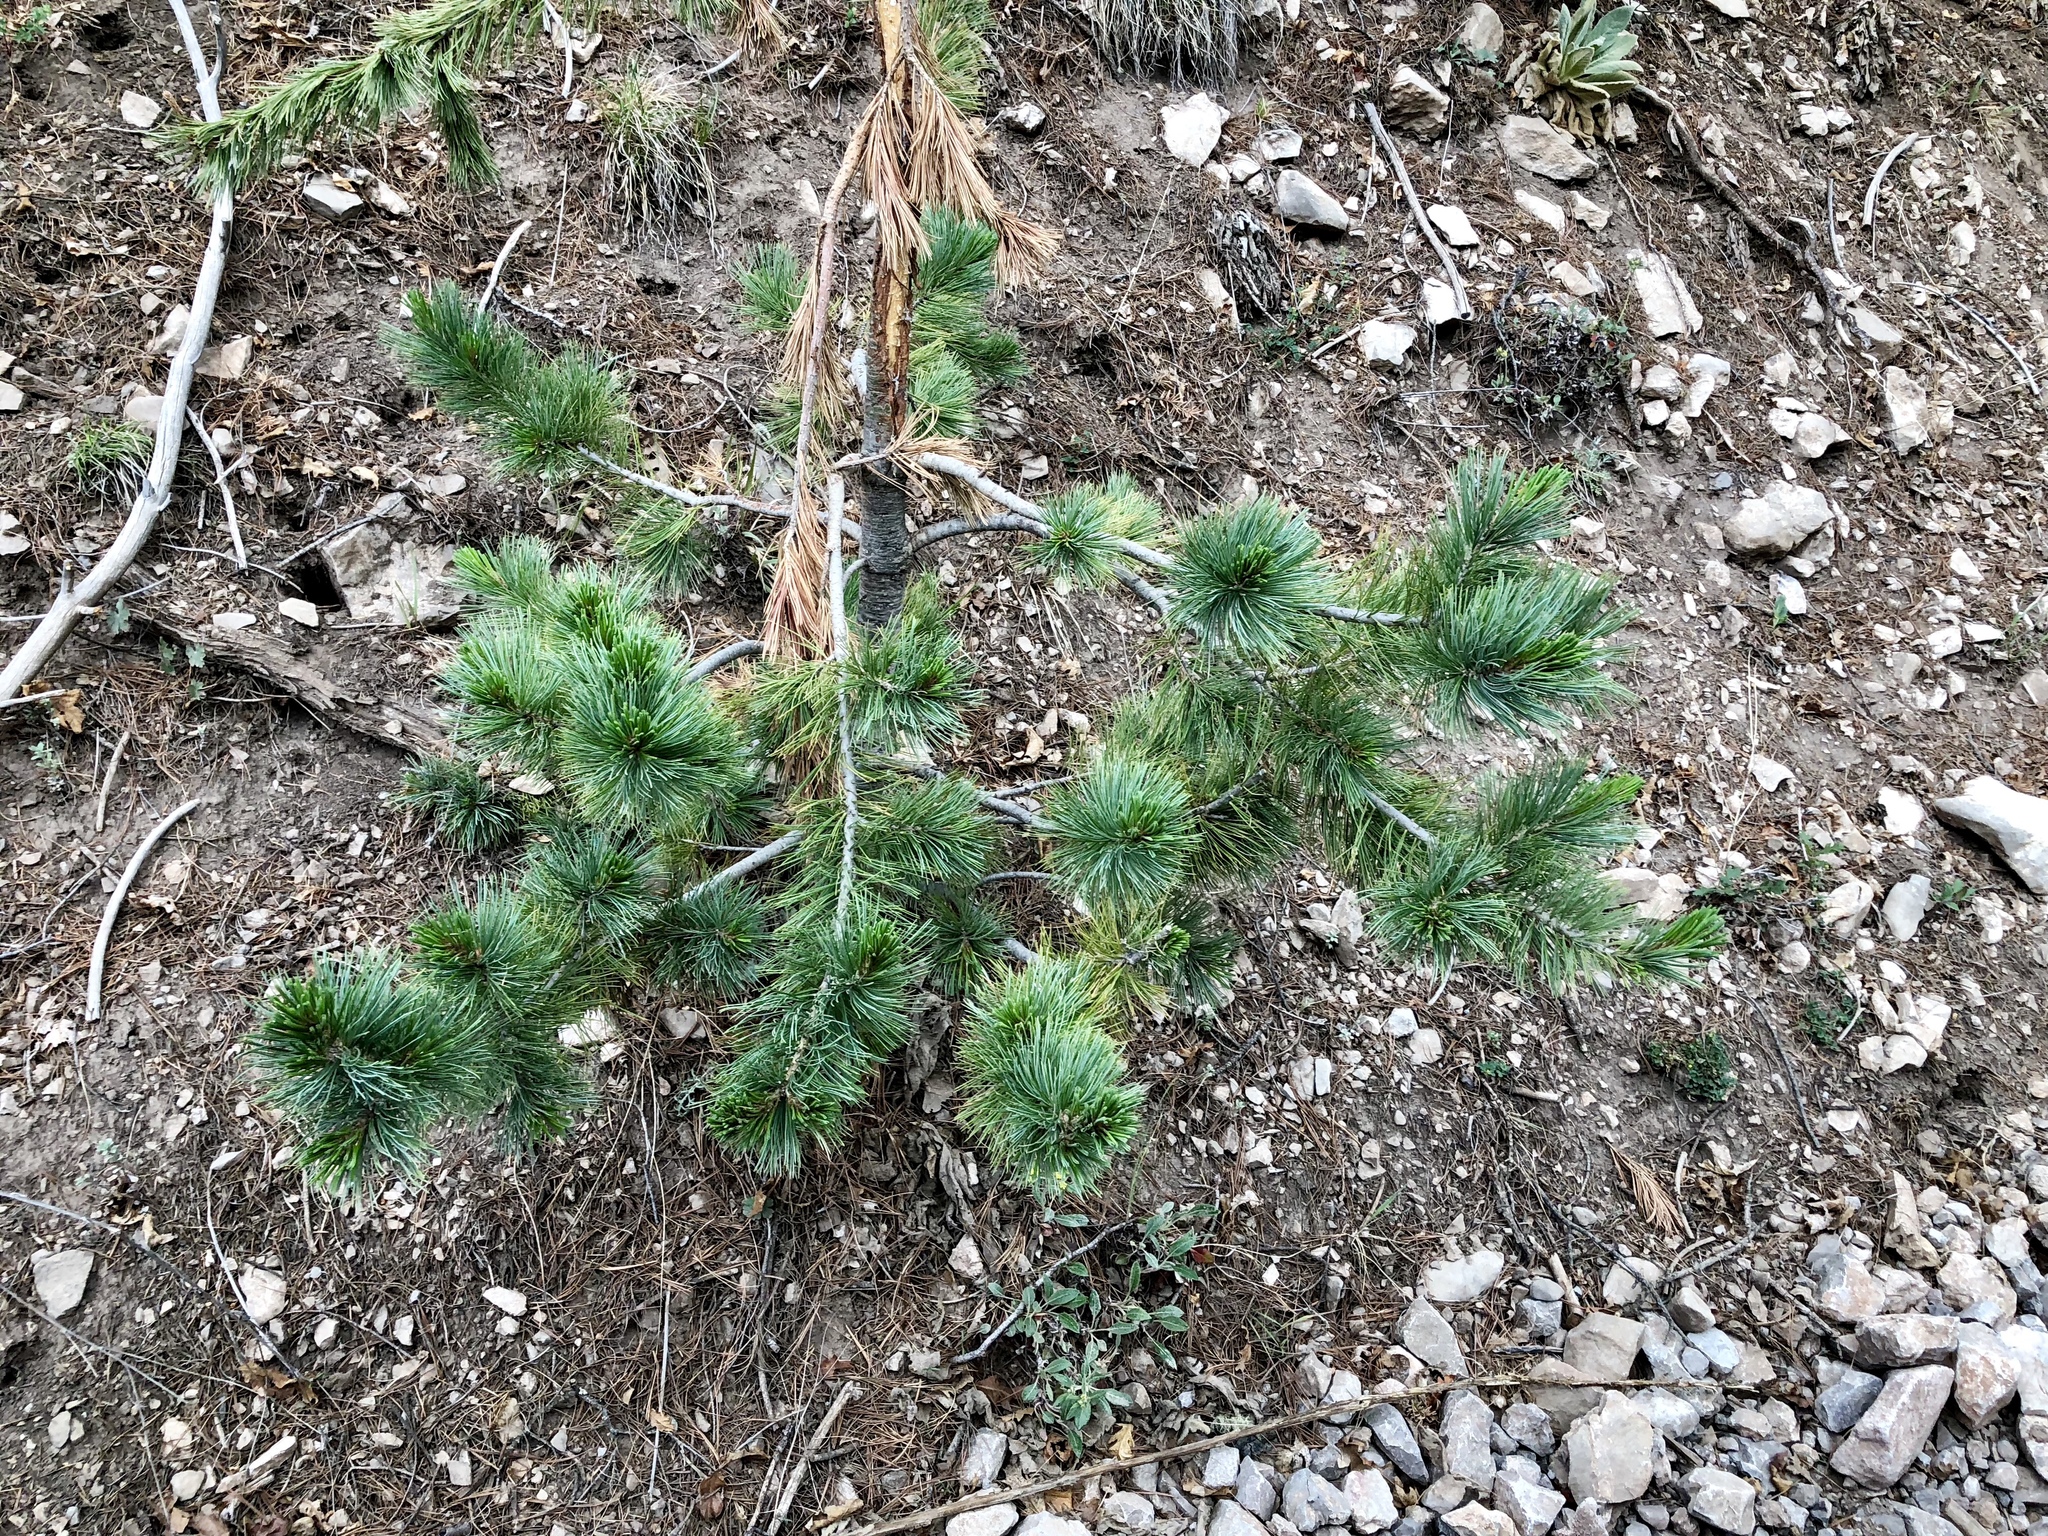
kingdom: Plantae
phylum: Tracheophyta
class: Pinopsida
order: Pinales
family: Pinaceae
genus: Pinus
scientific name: Pinus strobiformis
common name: Southwestern white pine
